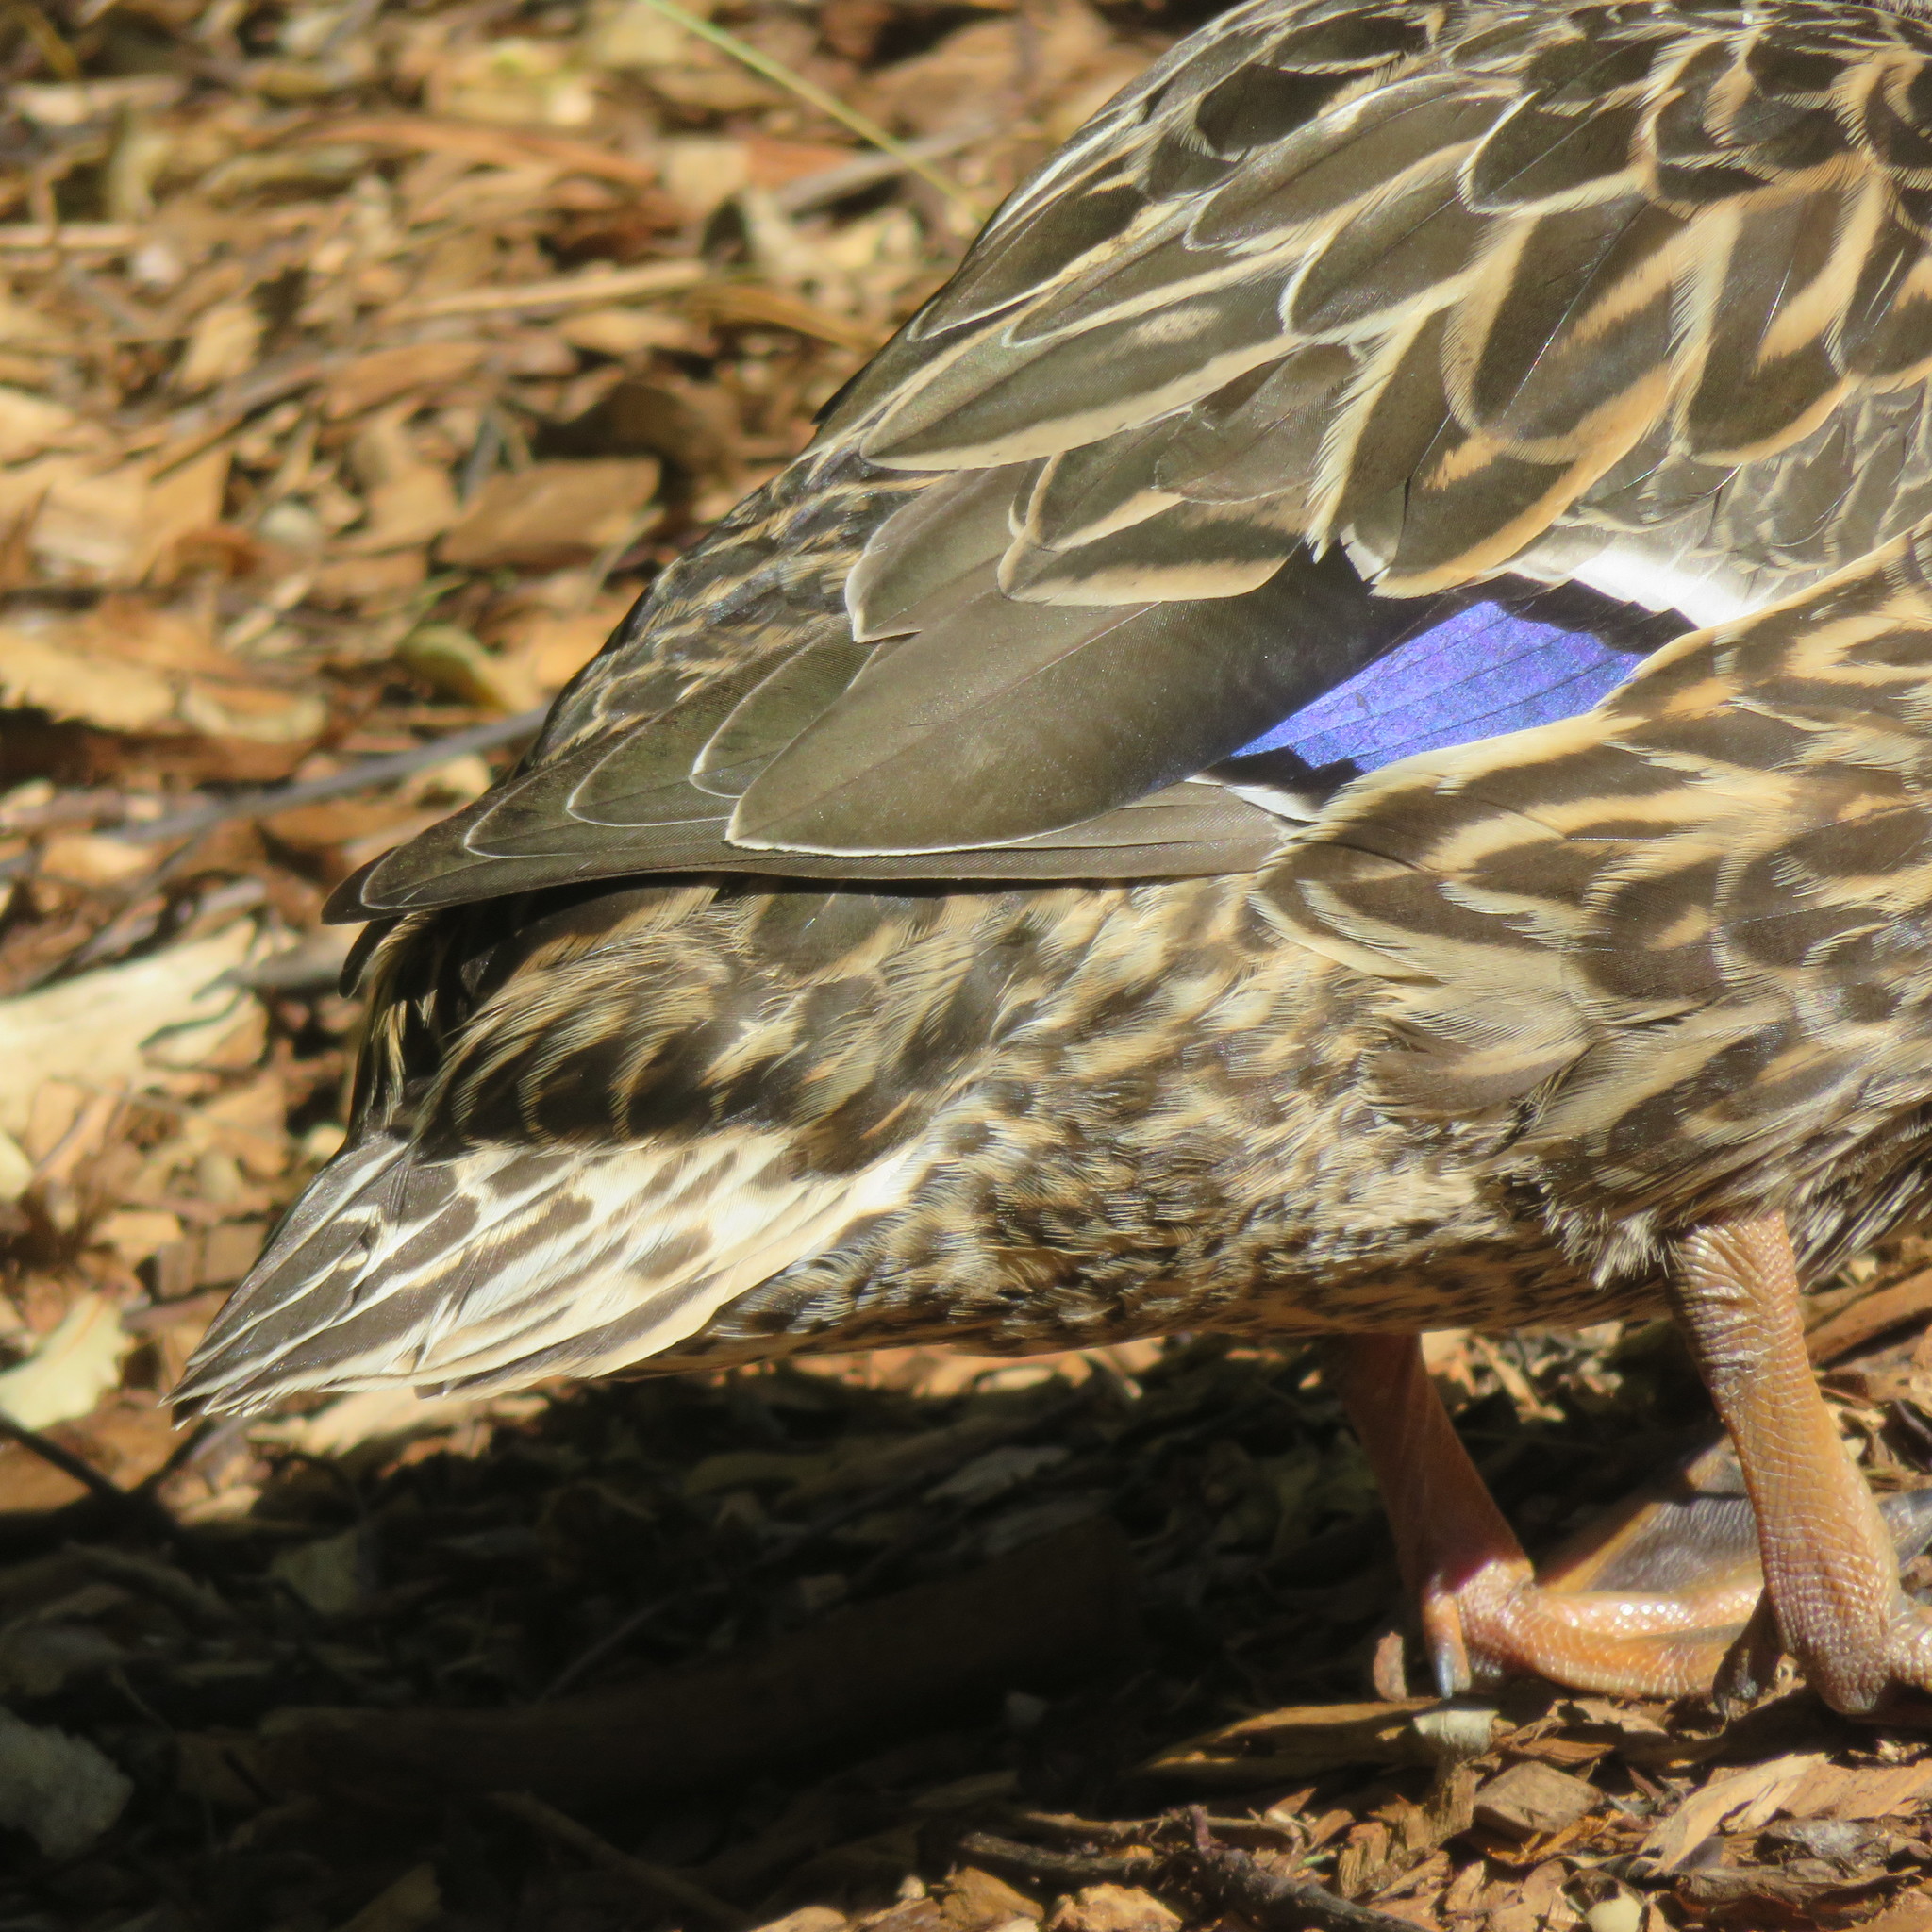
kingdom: Animalia
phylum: Chordata
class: Aves
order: Anseriformes
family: Anatidae
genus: Anas
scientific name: Anas
